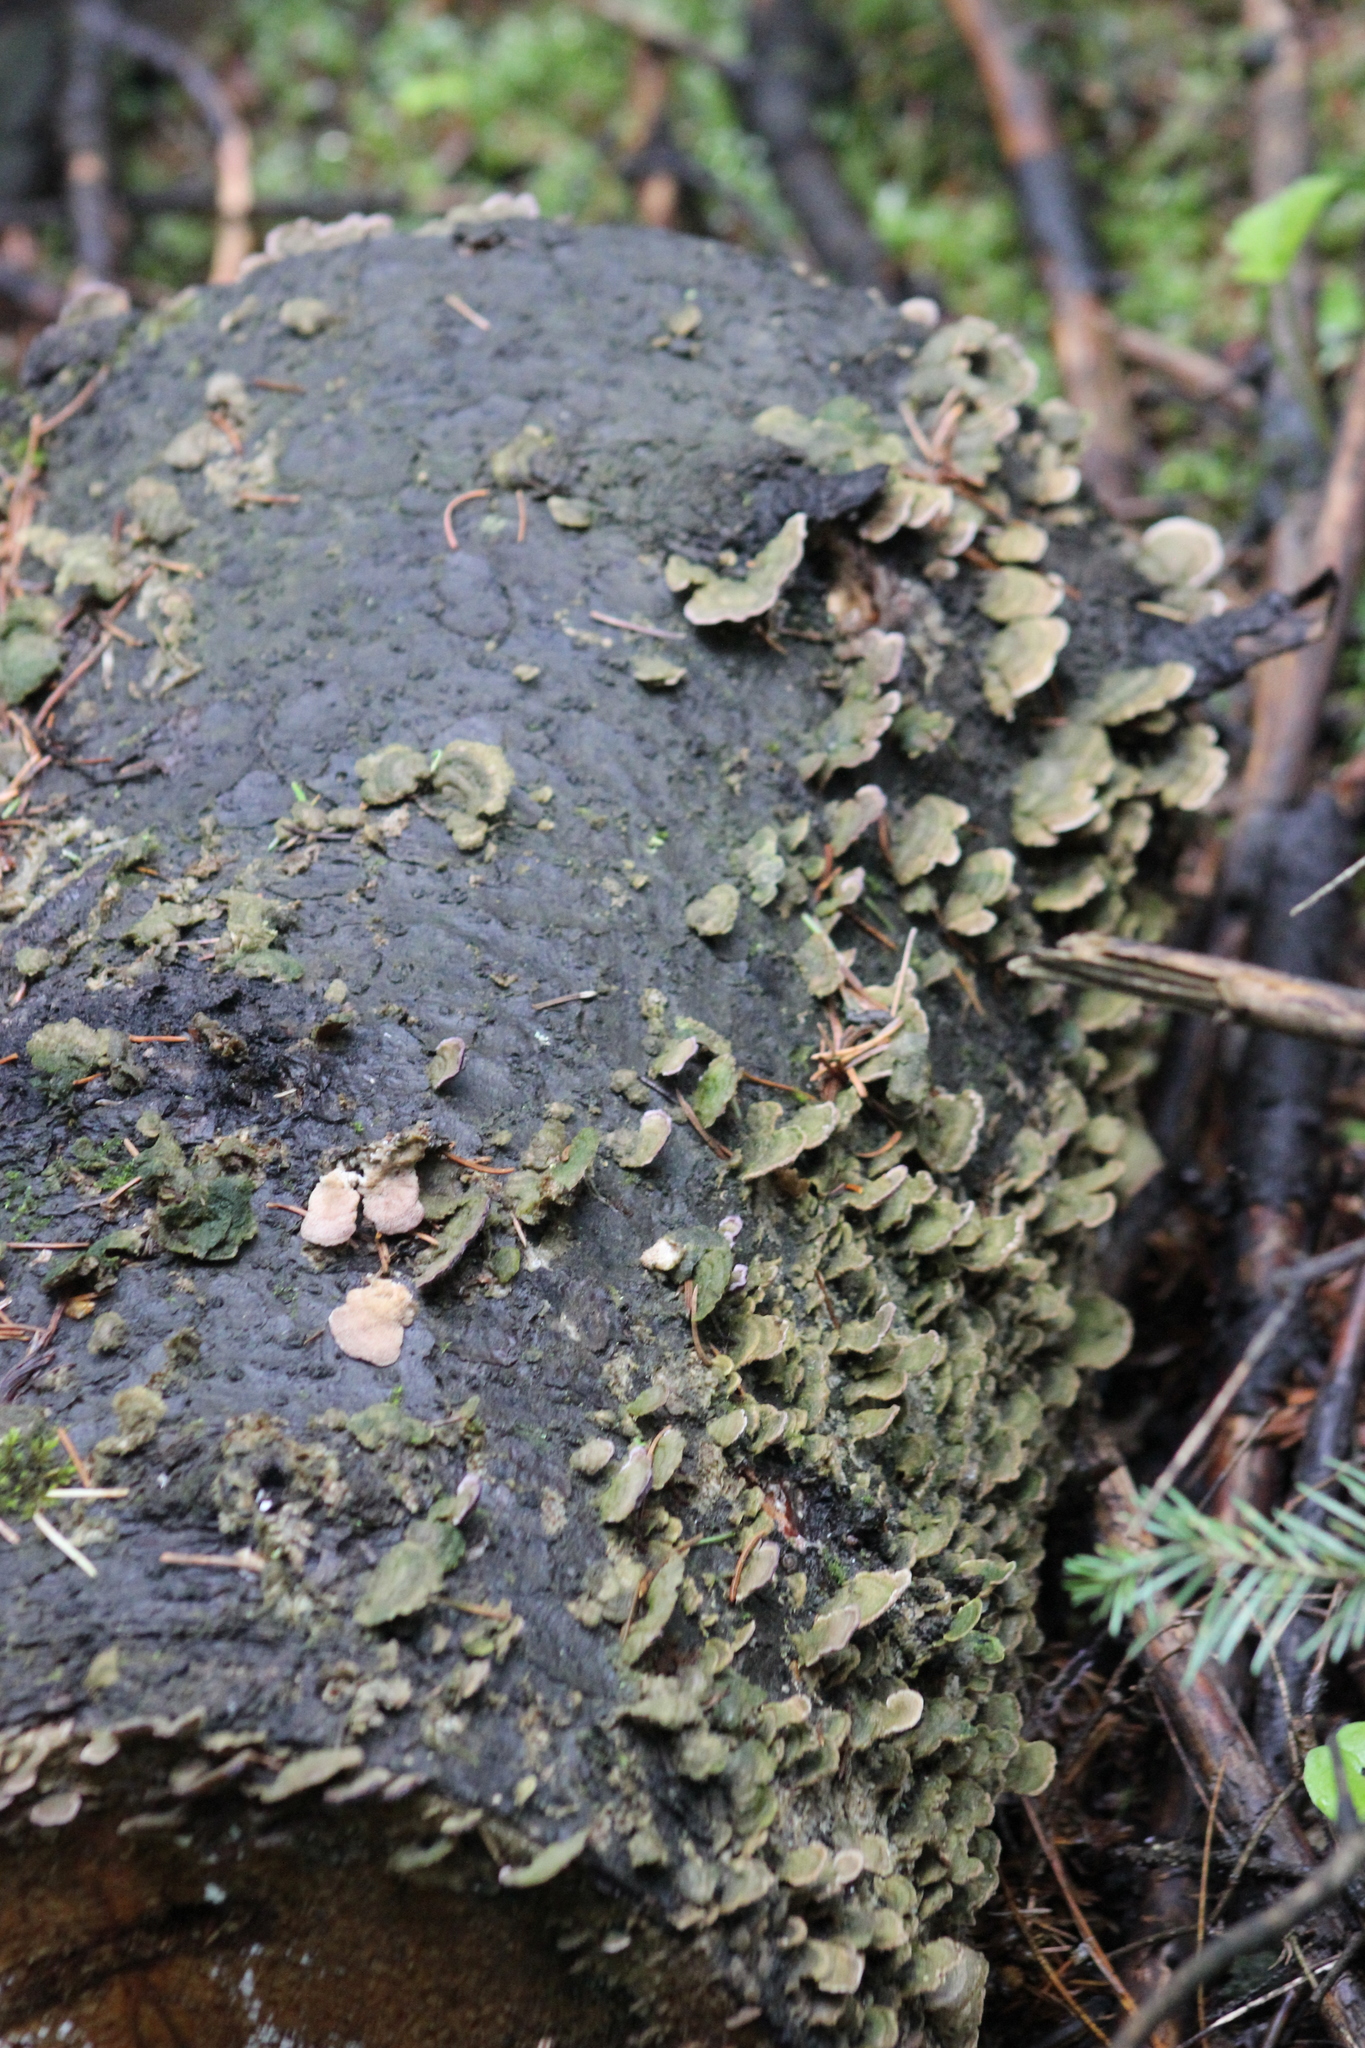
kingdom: Fungi
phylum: Basidiomycota
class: Agaricomycetes
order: Hymenochaetales
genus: Trichaptum
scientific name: Trichaptum abietinum
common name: Purplepore bracket
